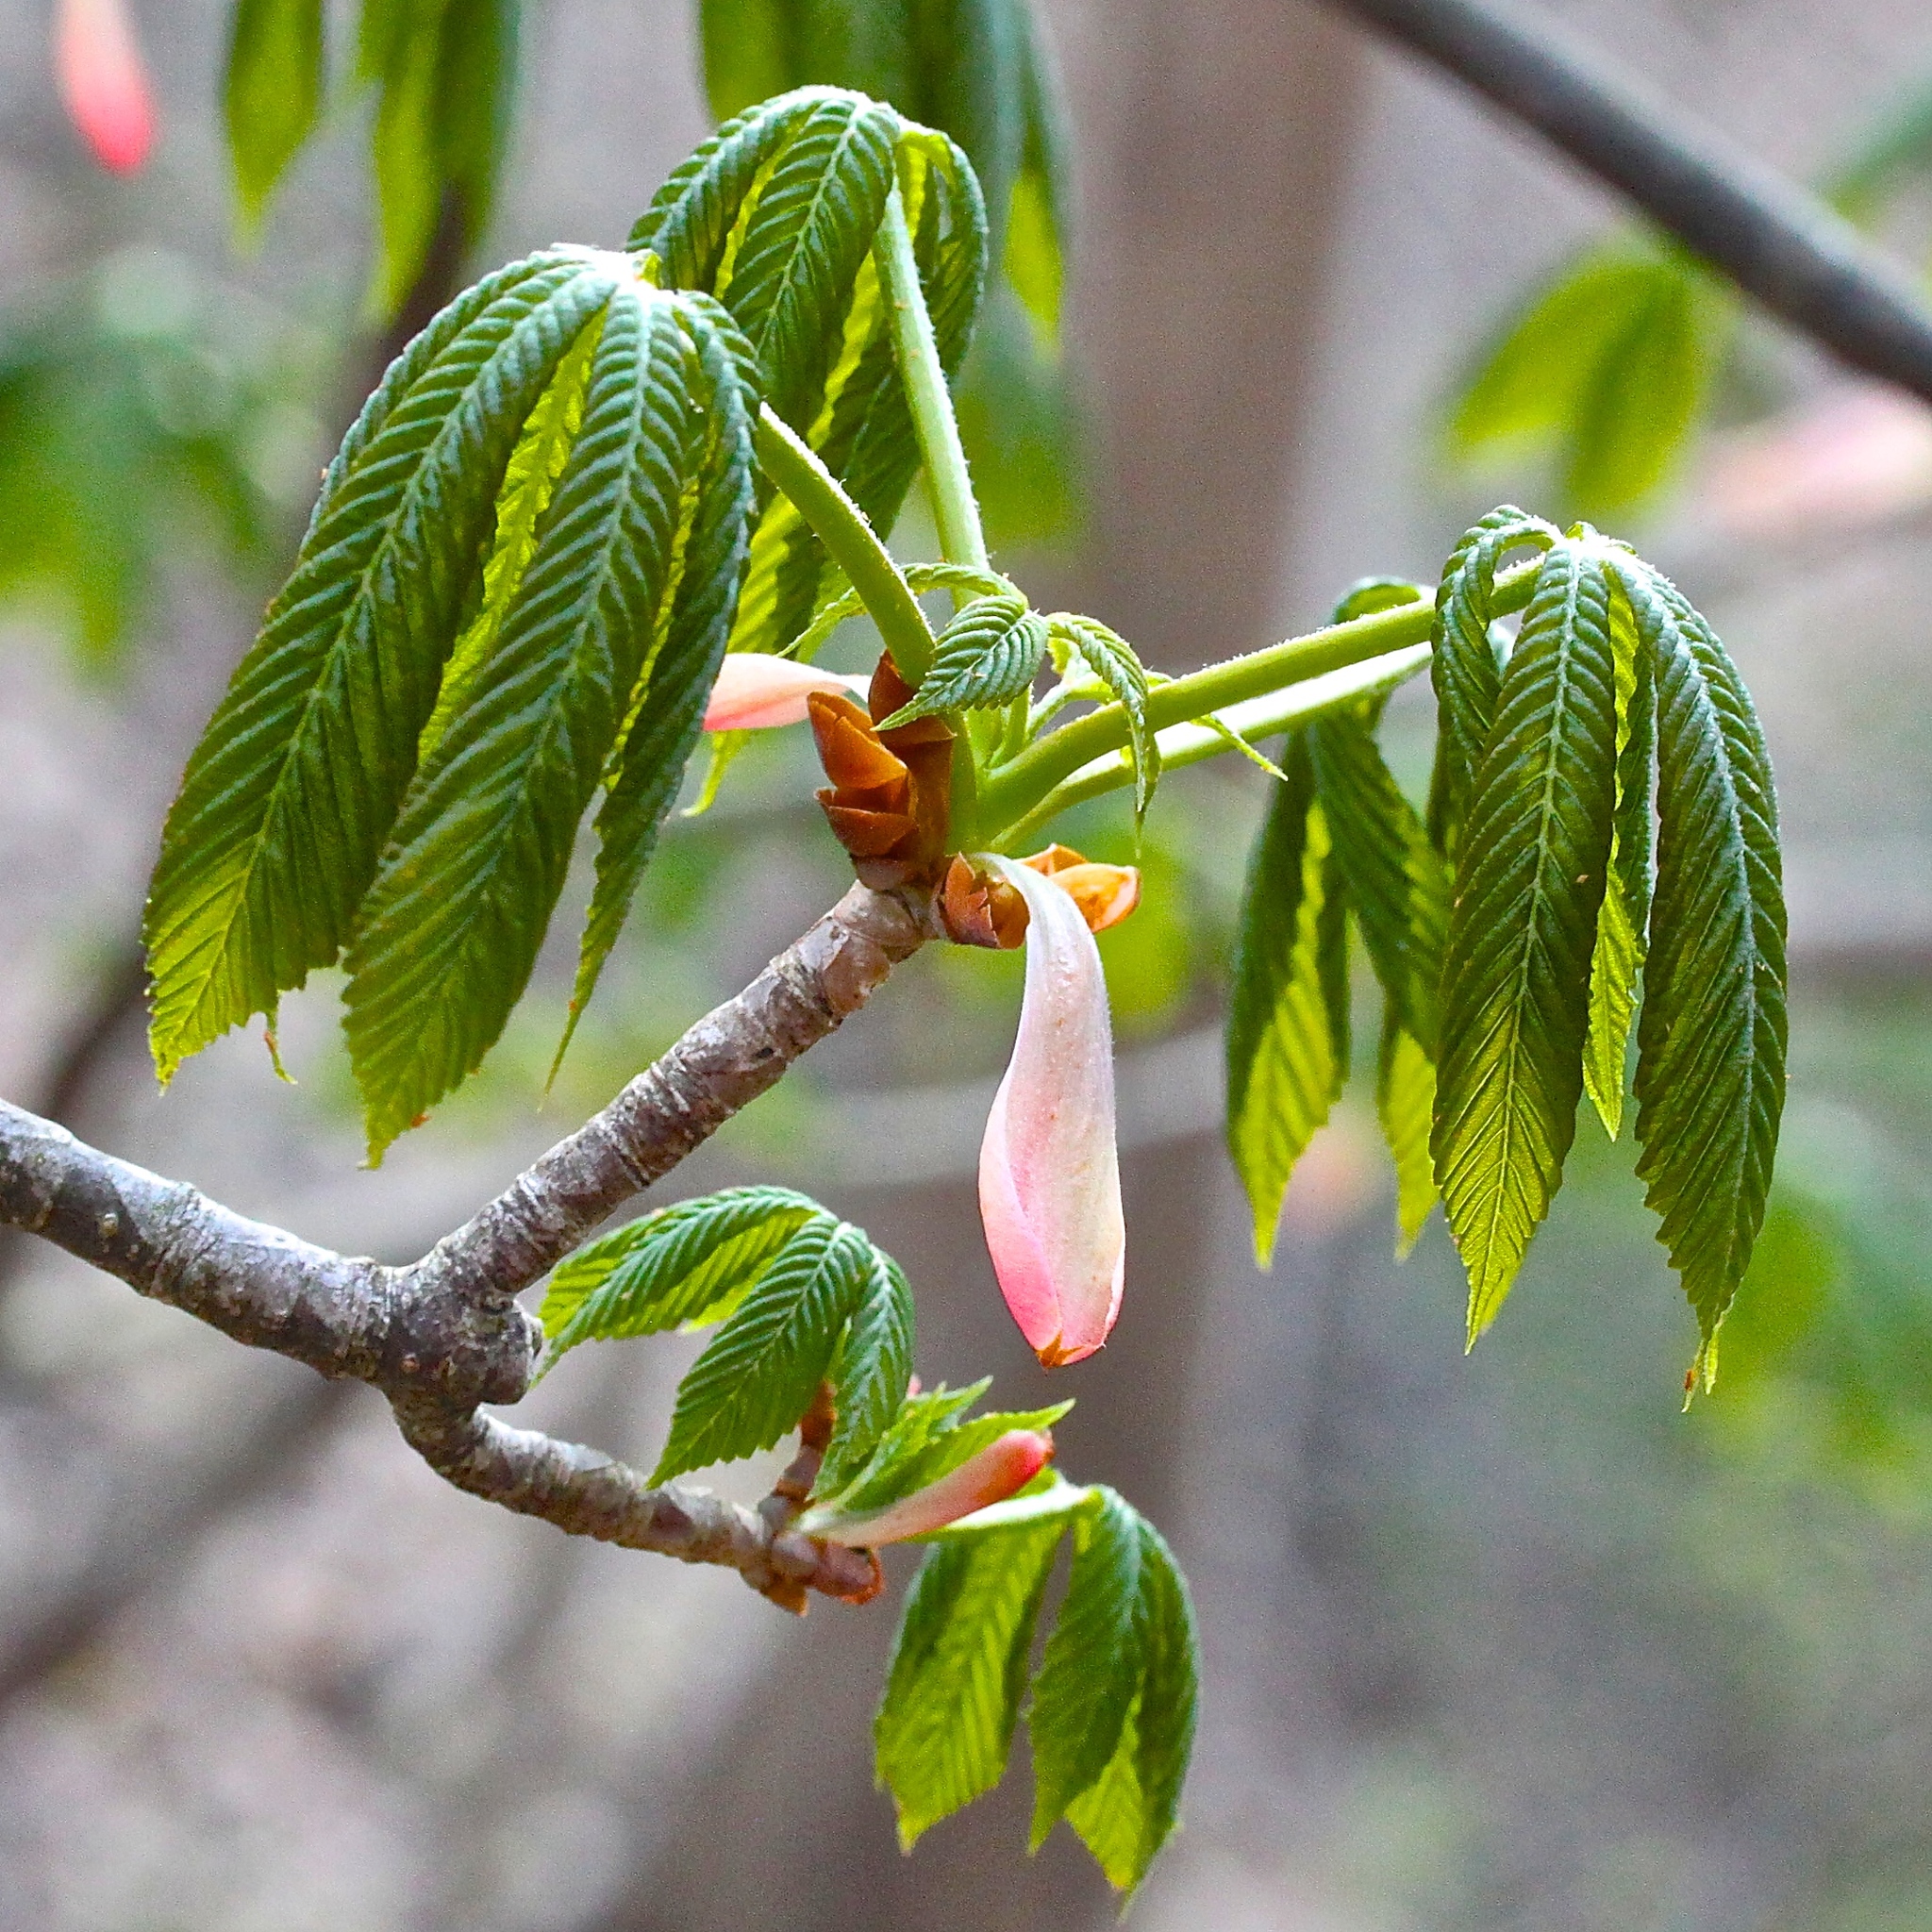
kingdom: Plantae
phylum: Tracheophyta
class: Magnoliopsida
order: Sapindales
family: Sapindaceae
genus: Aesculus
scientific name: Aesculus glabra
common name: Ohio buckeye
